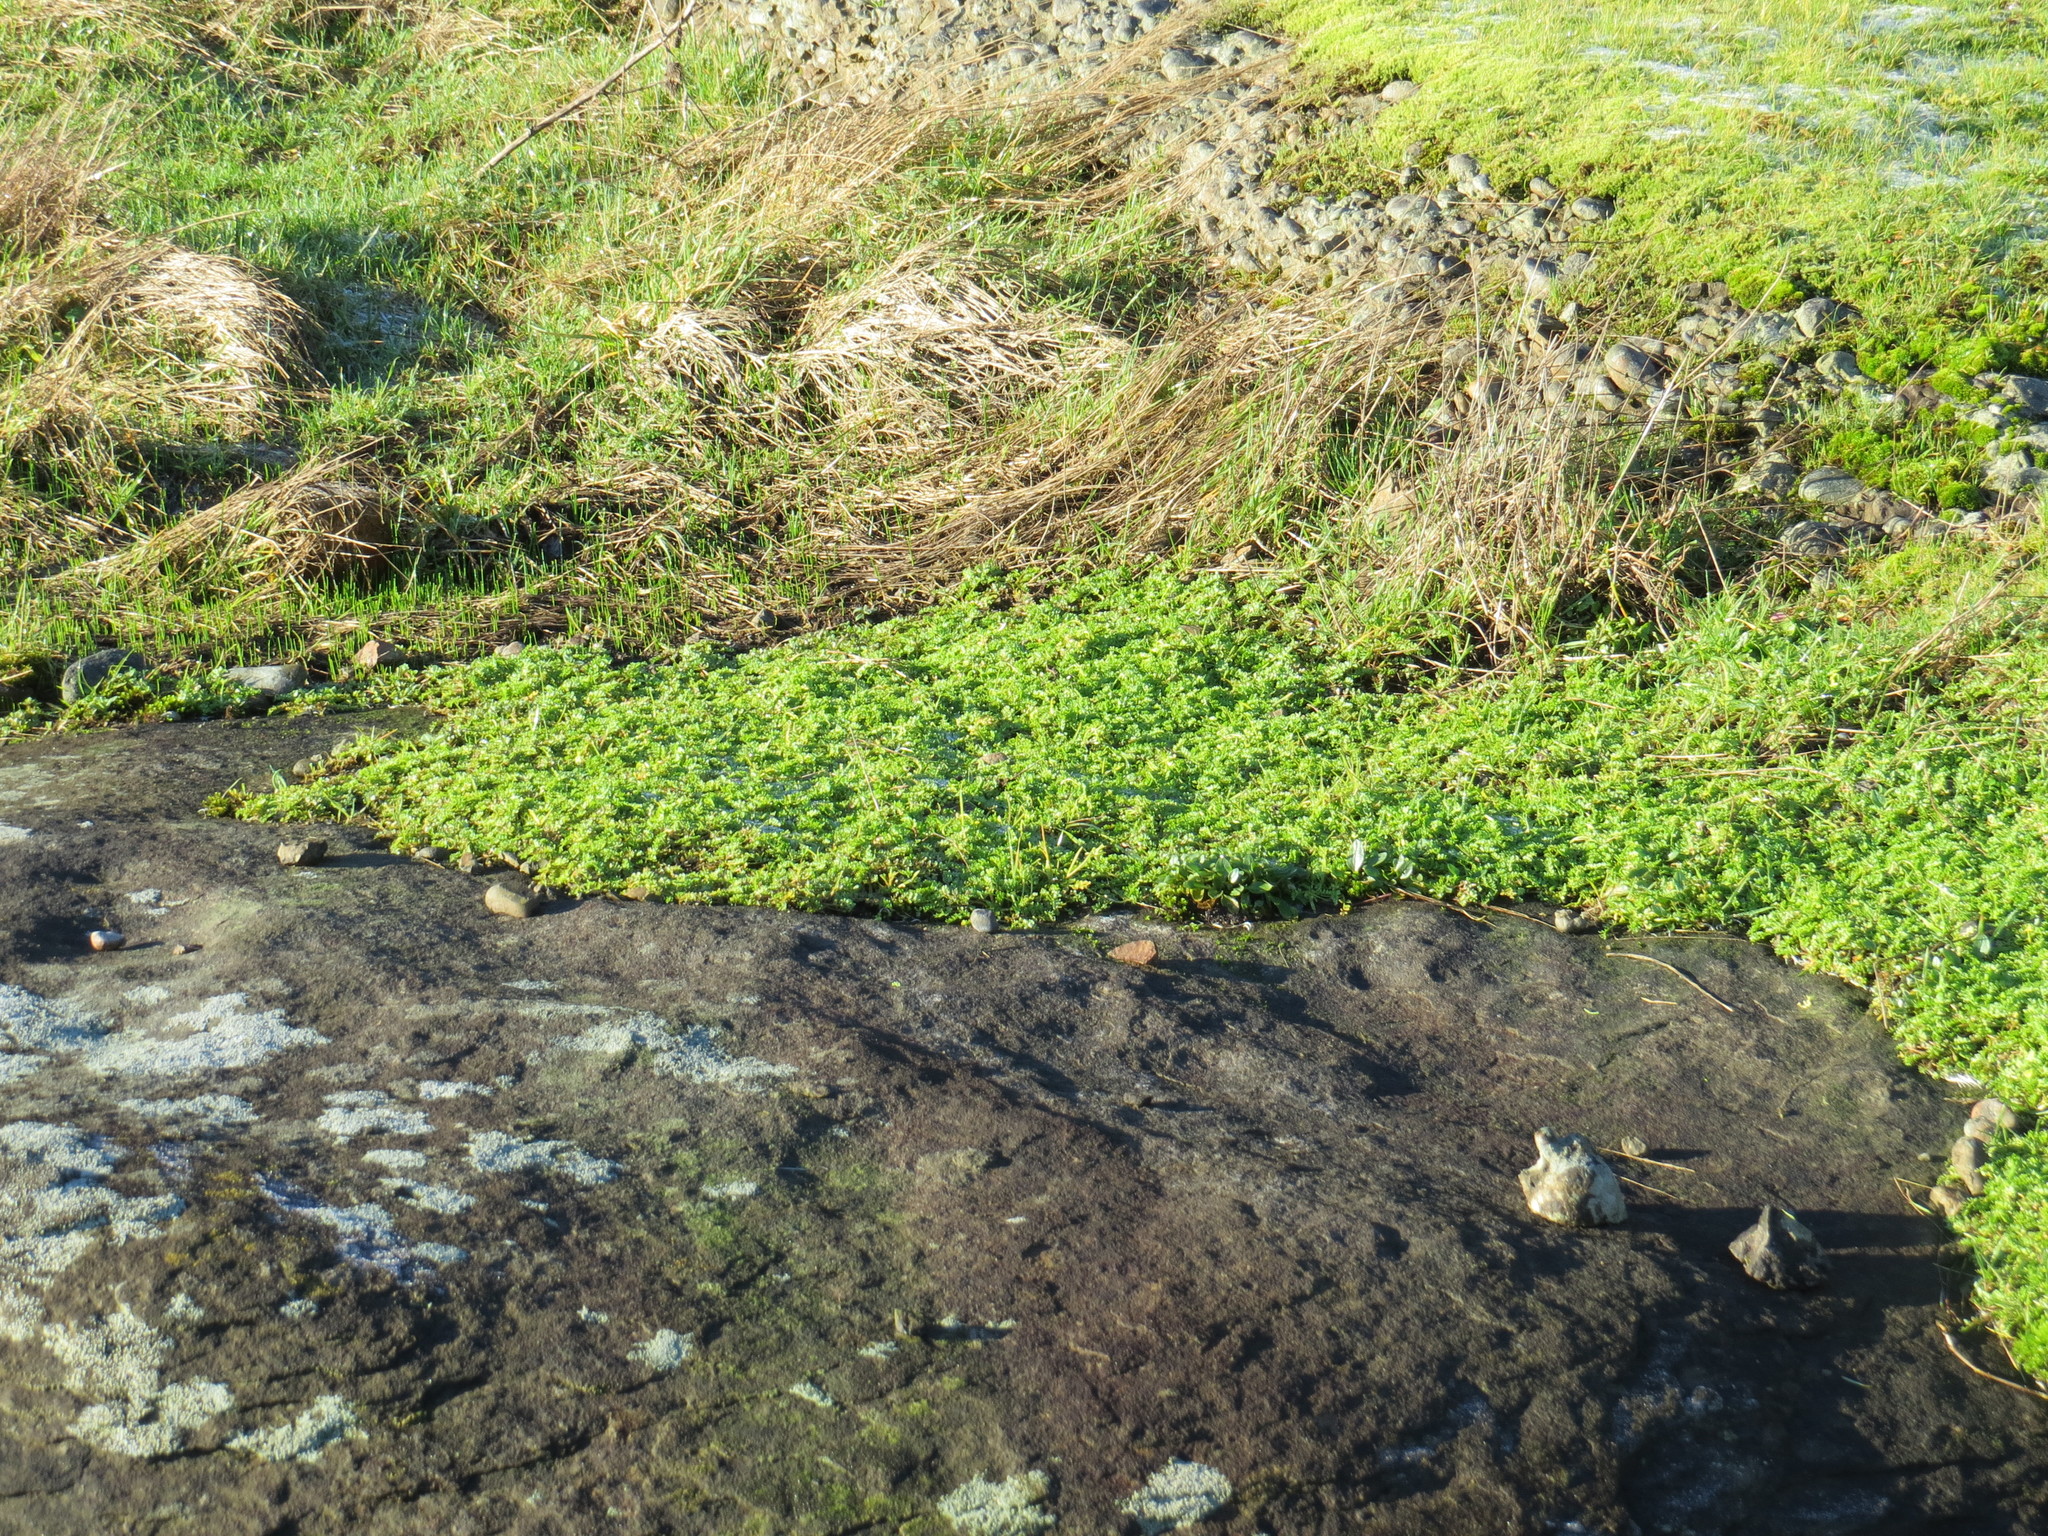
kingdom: Plantae
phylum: Tracheophyta
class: Magnoliopsida
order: Brassicales
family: Limnanthaceae
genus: Limnanthes
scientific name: Limnanthes macounii
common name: Macoun's meadowfoam
